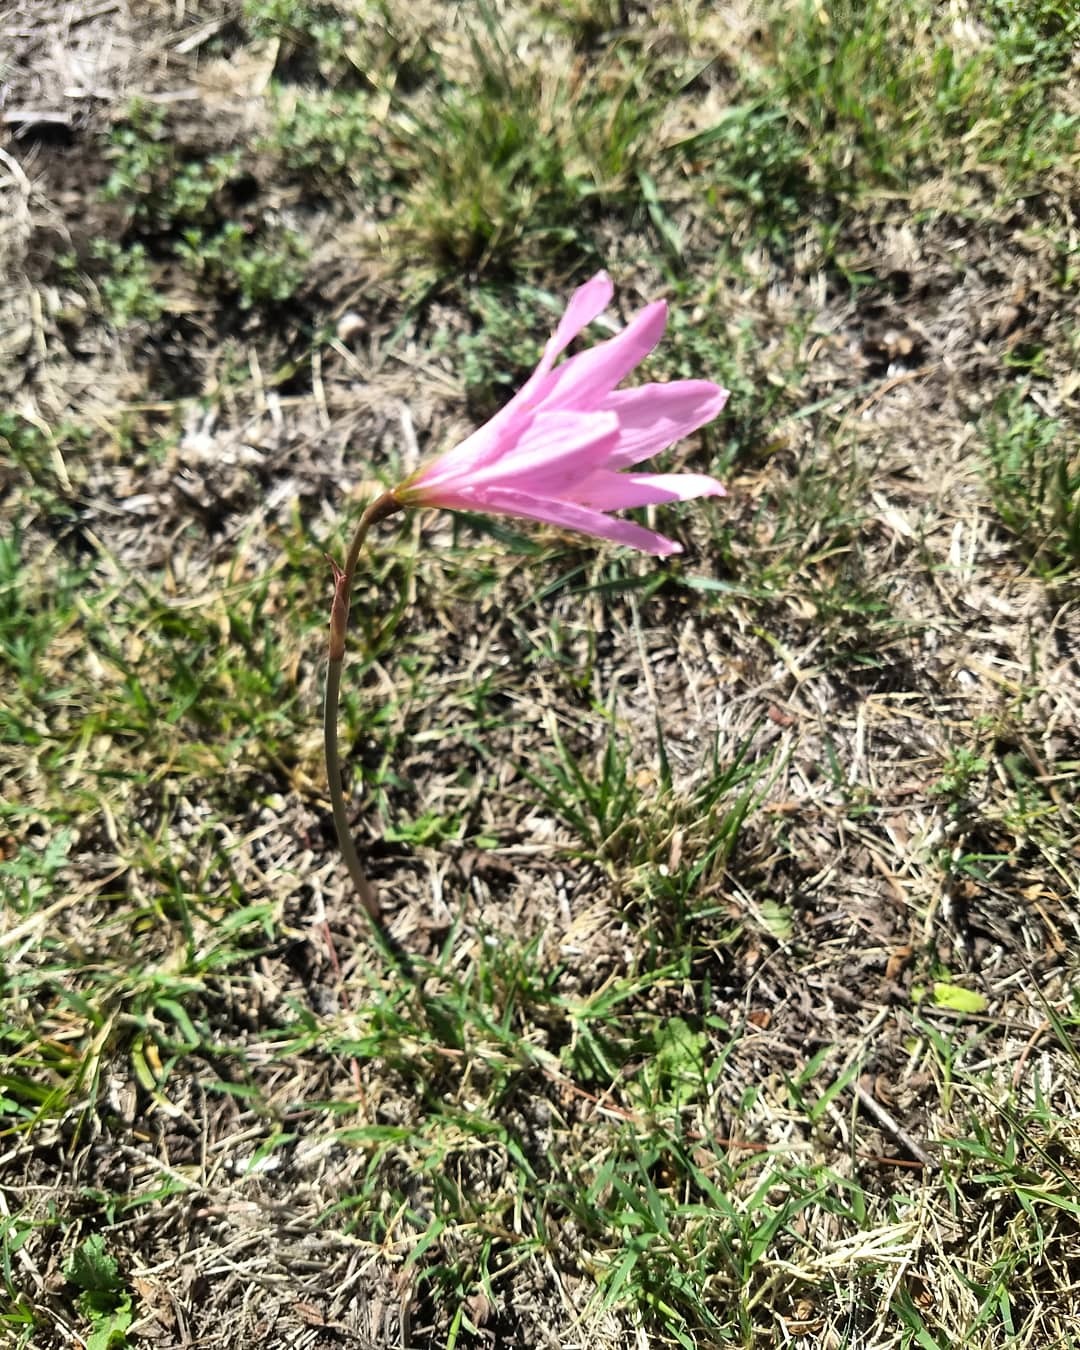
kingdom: Plantae
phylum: Tracheophyta
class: Liliopsida
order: Asparagales
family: Amaryllidaceae
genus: Zephyranthes
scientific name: Zephyranthes gracilifolia
